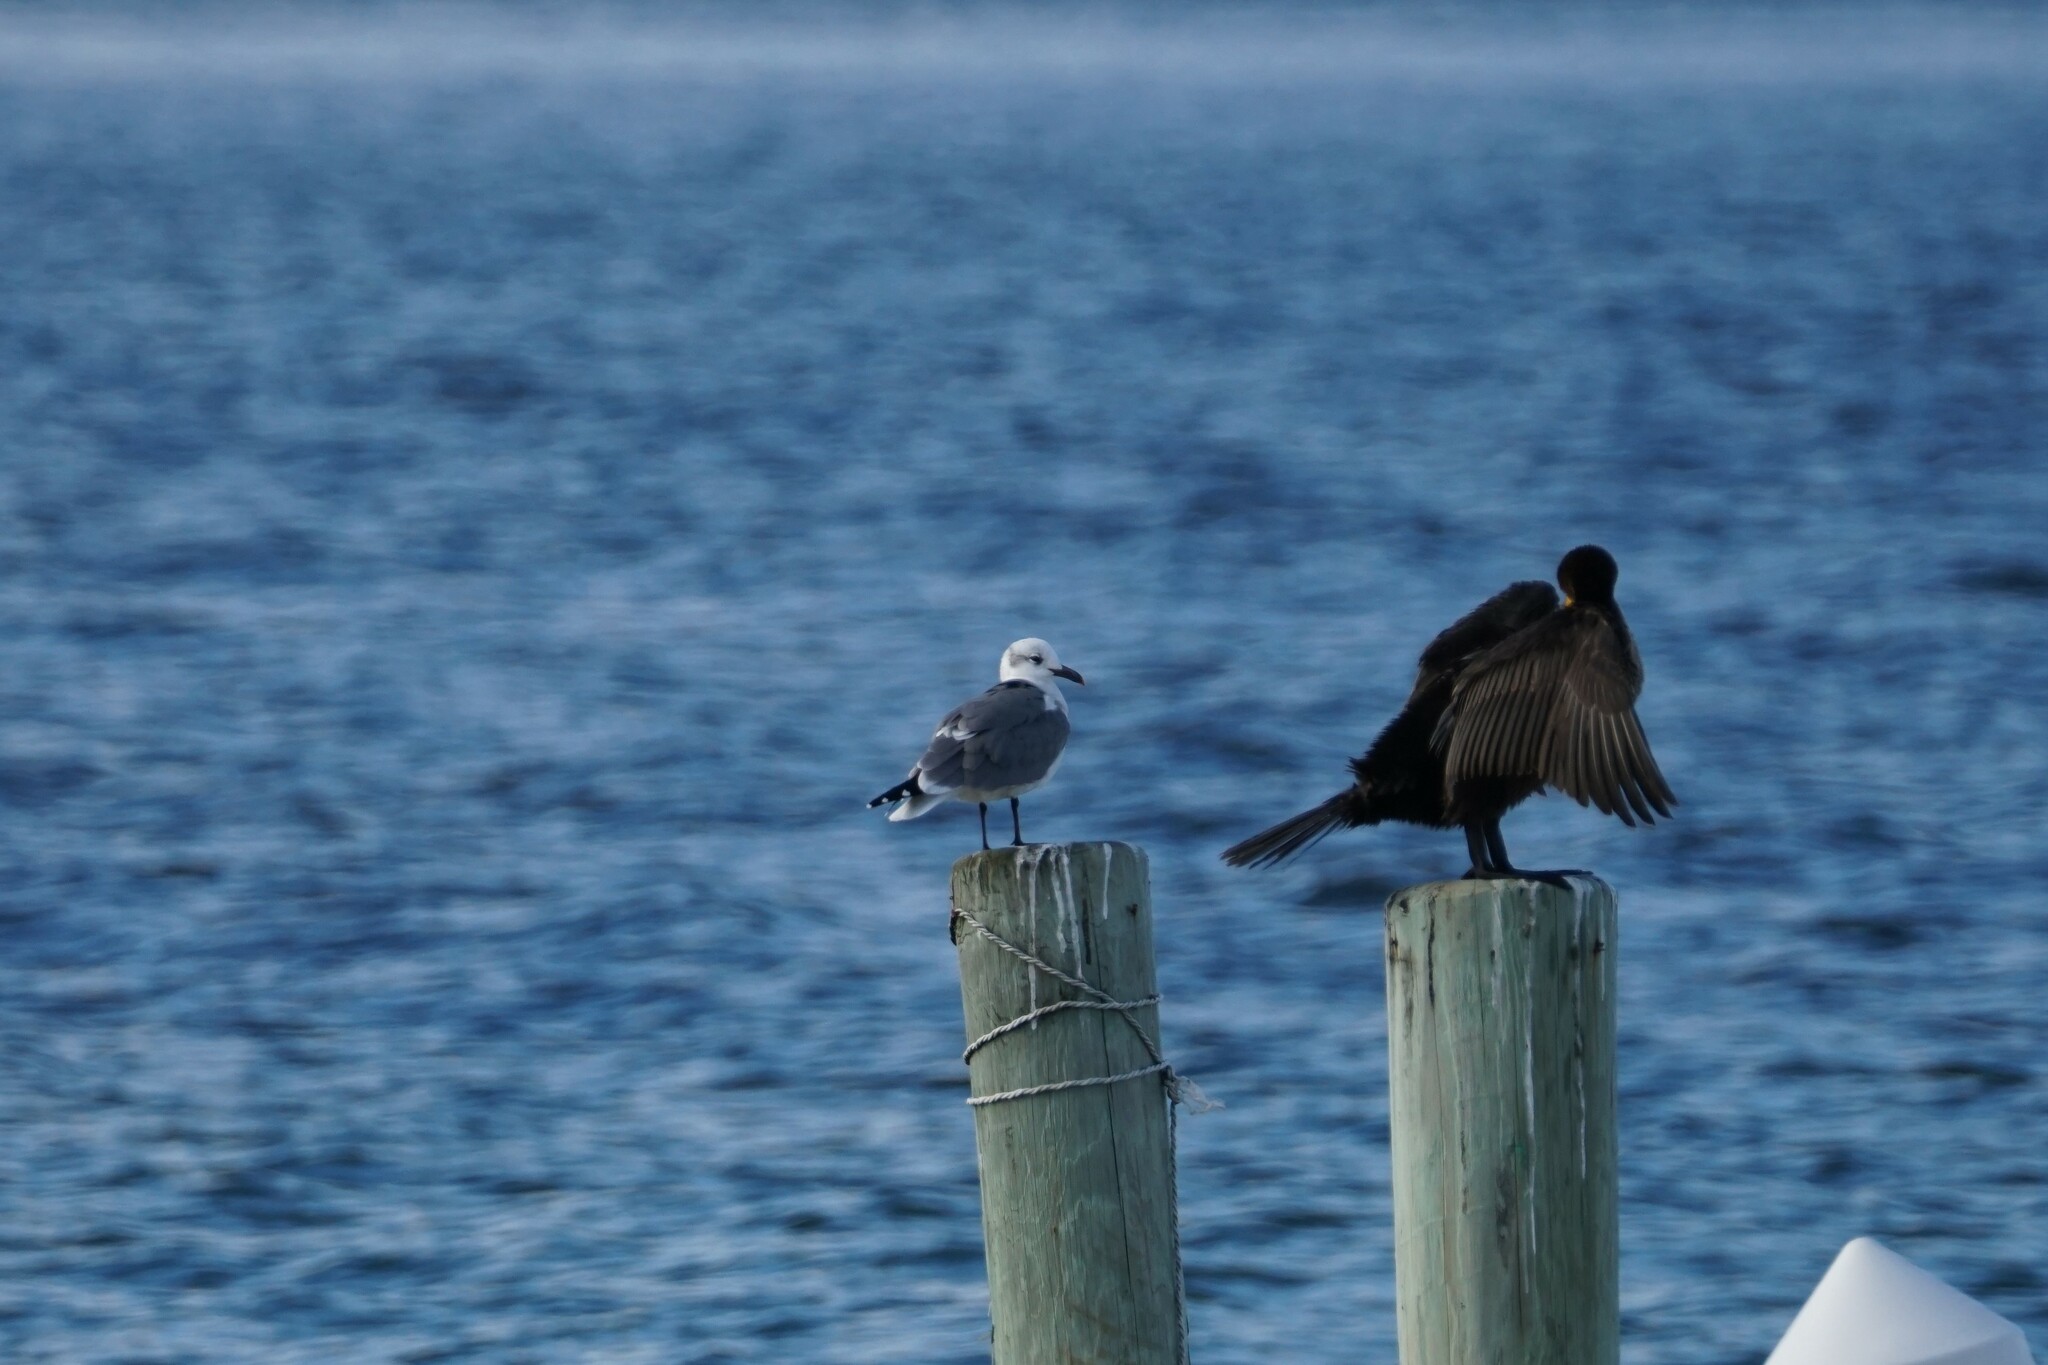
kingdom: Animalia
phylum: Chordata
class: Aves
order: Charadriiformes
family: Laridae
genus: Leucophaeus
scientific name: Leucophaeus atricilla
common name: Laughing gull
